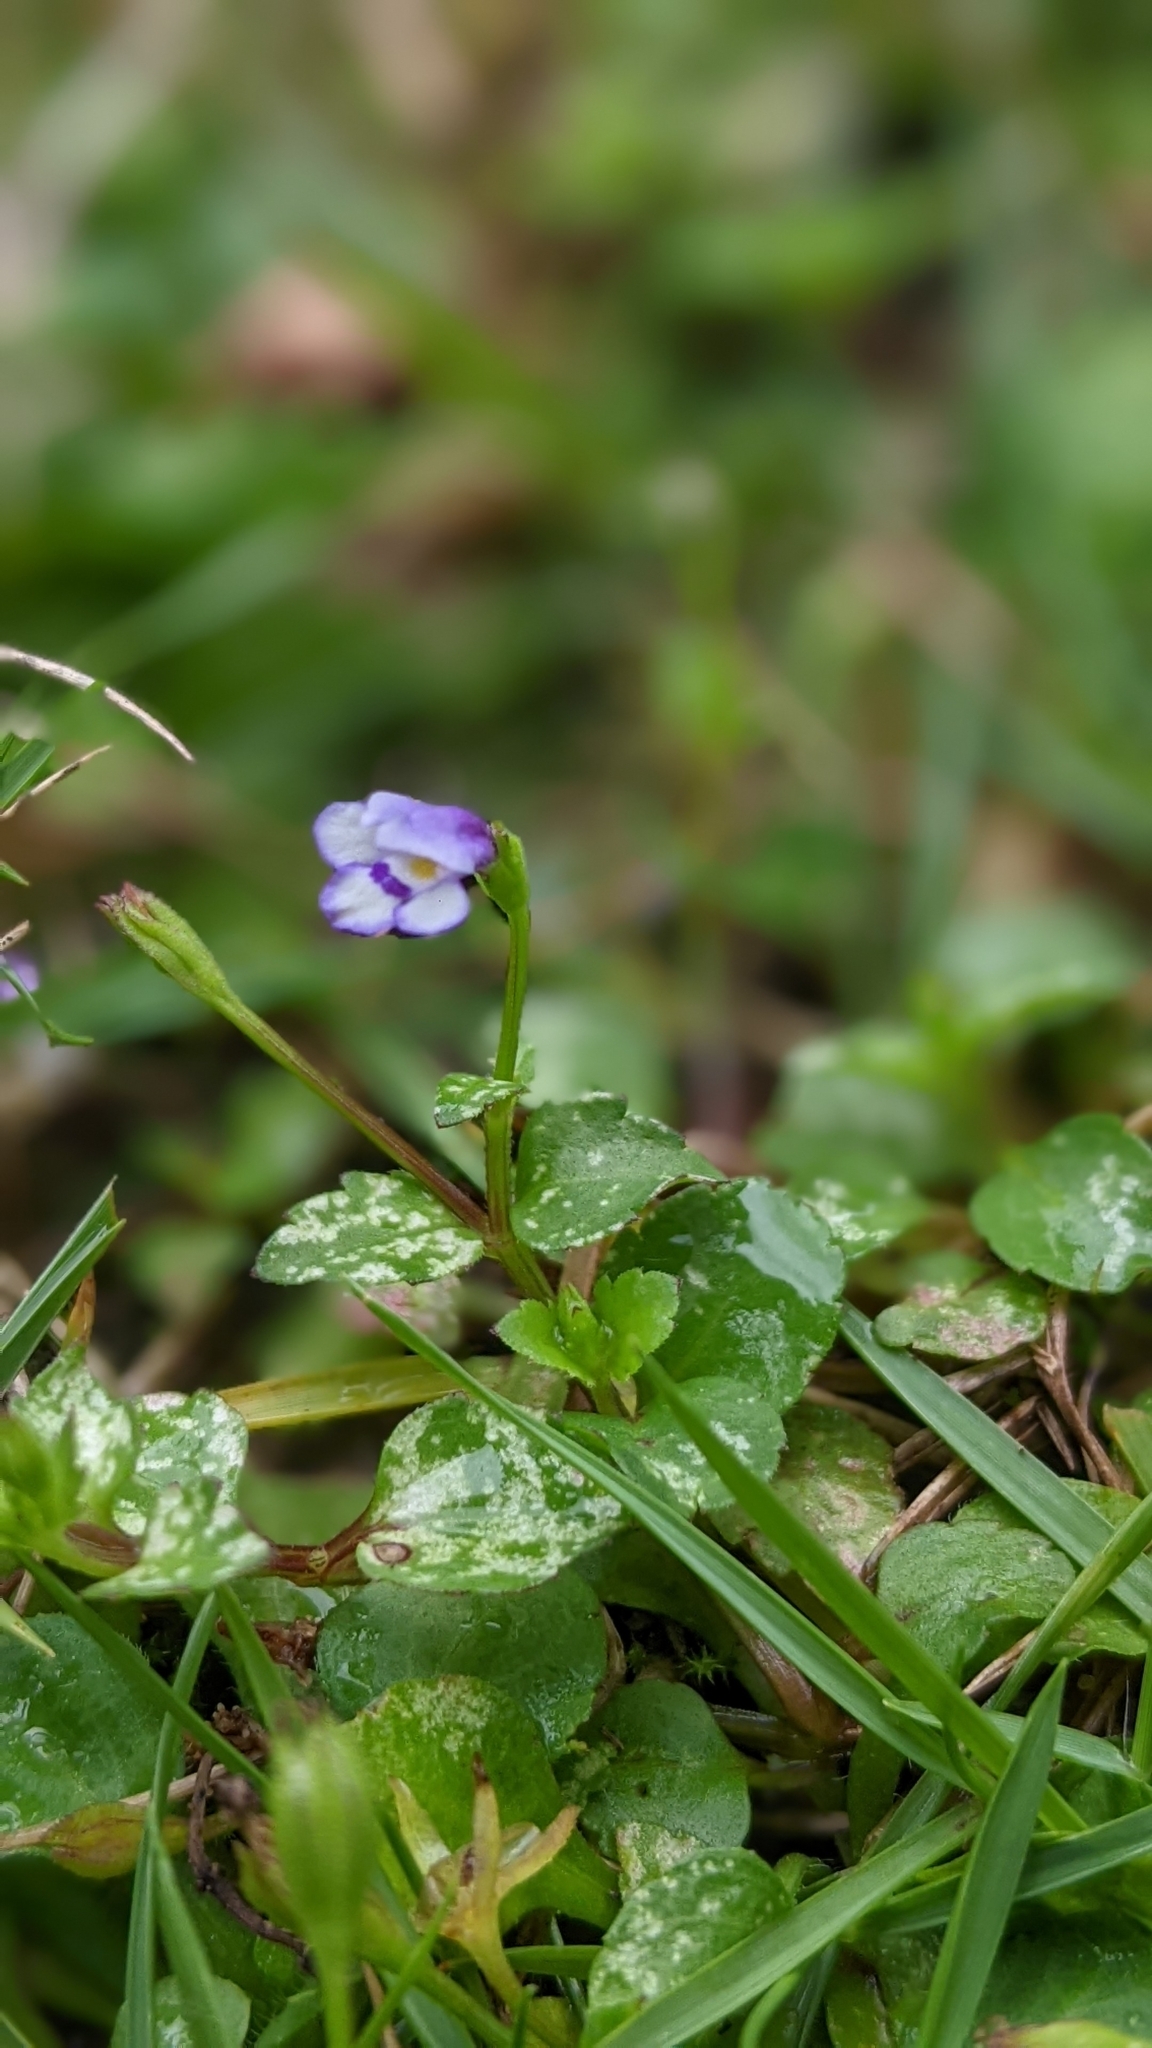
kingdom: Plantae
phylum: Tracheophyta
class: Magnoliopsida
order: Lamiales
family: Linderniaceae
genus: Torenia
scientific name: Torenia crustacea
